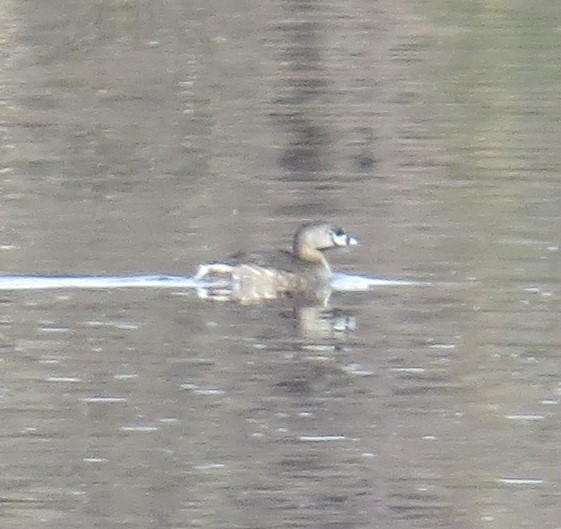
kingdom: Animalia
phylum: Chordata
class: Aves
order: Podicipediformes
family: Podicipedidae
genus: Podilymbus
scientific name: Podilymbus podiceps
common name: Pied-billed grebe
